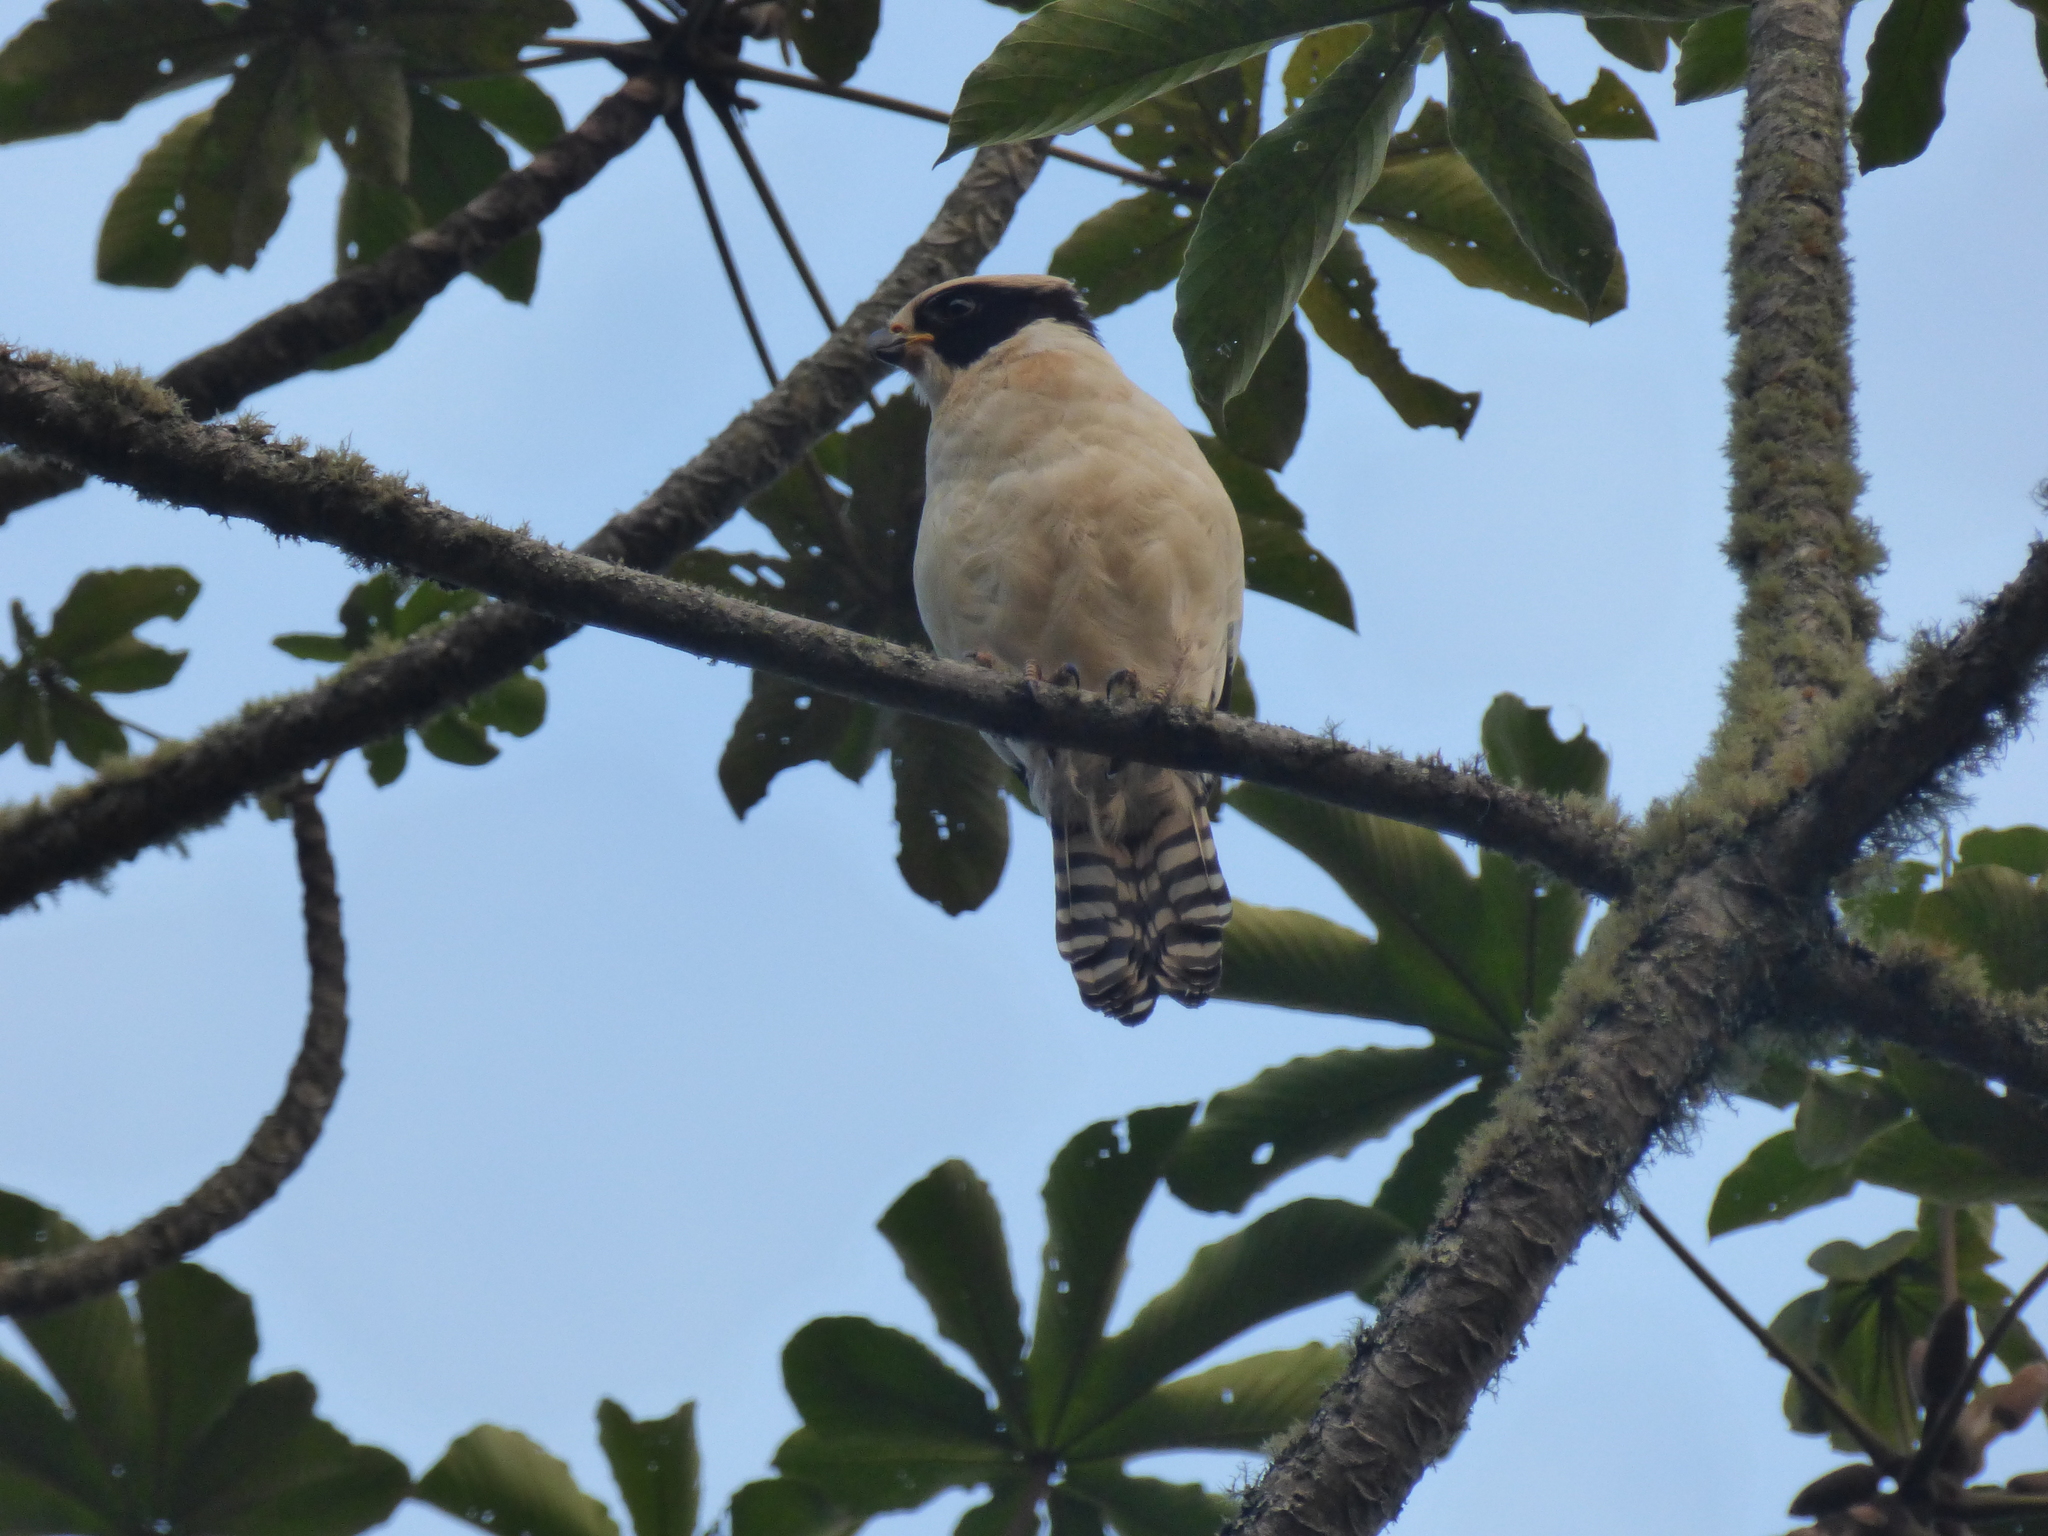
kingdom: Animalia
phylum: Chordata
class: Aves
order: Falconiformes
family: Falconidae
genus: Herpetotheres
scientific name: Herpetotheres cachinnans
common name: Laughing falcon
